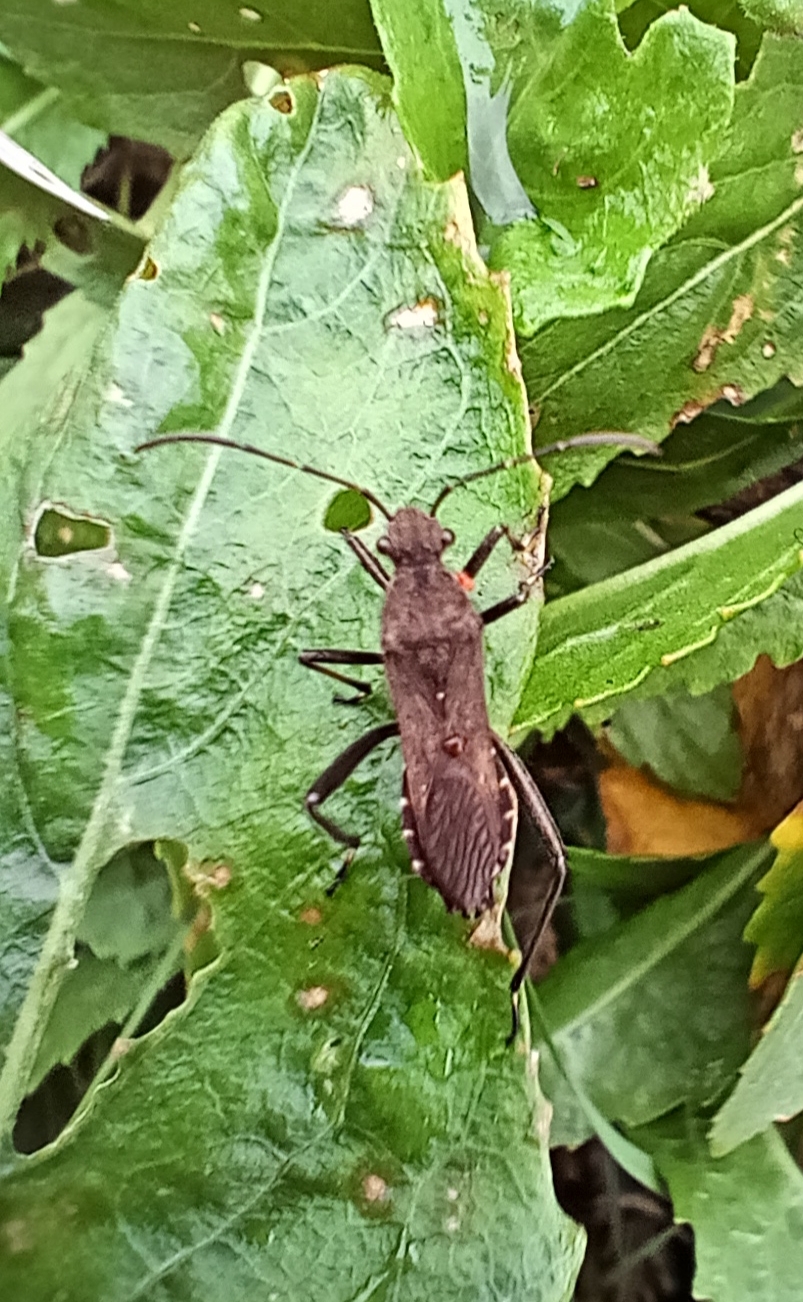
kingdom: Animalia
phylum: Arthropoda
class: Insecta
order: Hemiptera
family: Alydidae
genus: Alydus
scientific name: Alydus calcaratus
